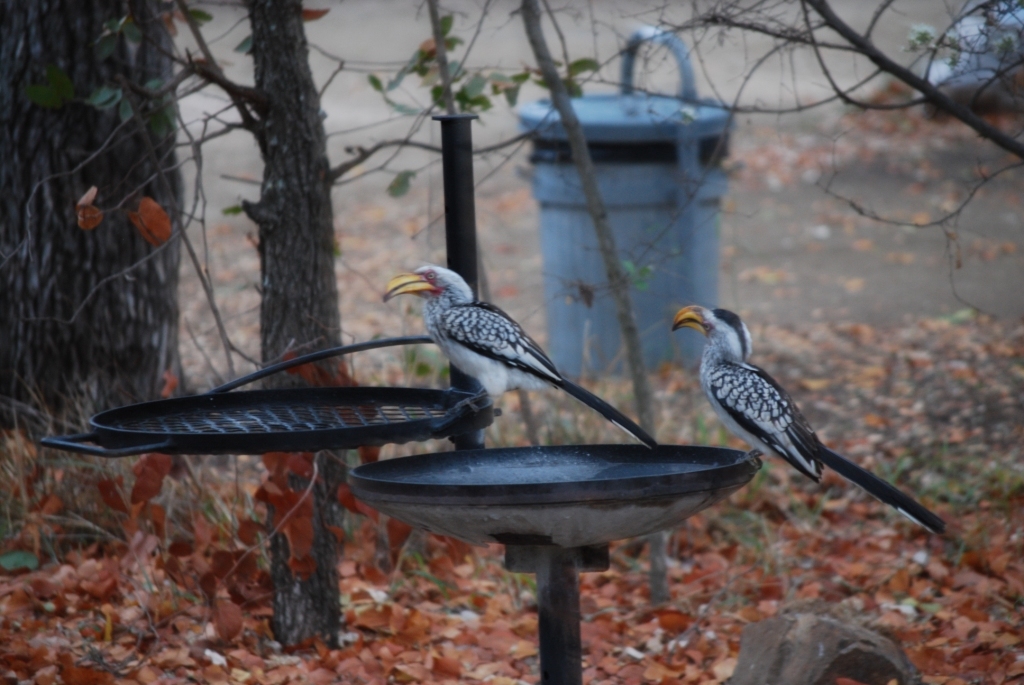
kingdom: Animalia
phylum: Chordata
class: Aves
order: Bucerotiformes
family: Bucerotidae
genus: Tockus
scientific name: Tockus leucomelas
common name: Southern yellow-billed hornbill
